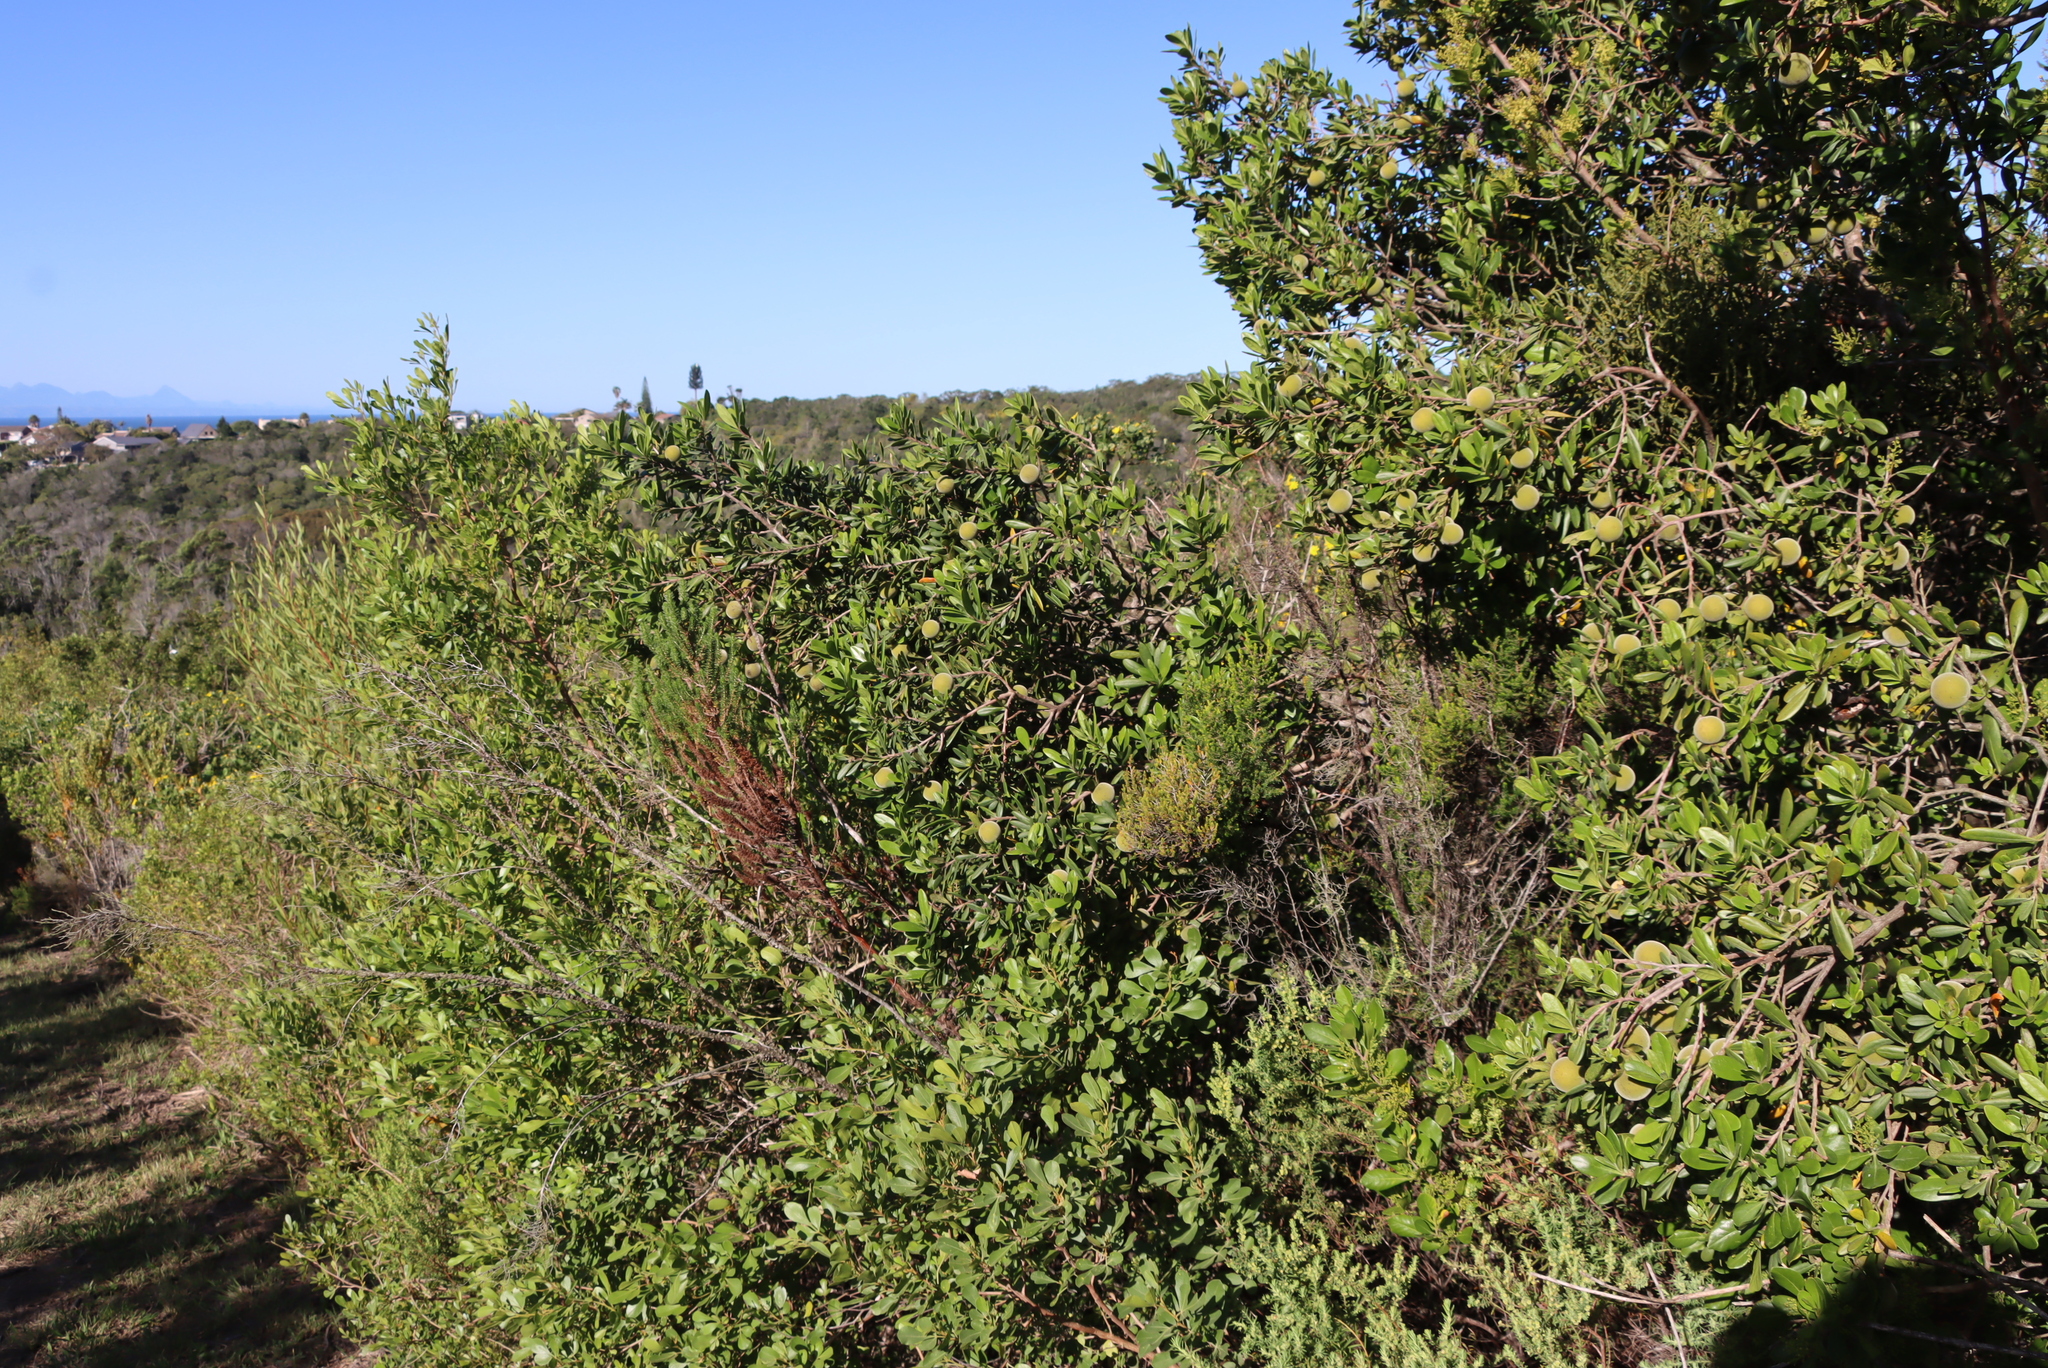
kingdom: Plantae
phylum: Tracheophyta
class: Magnoliopsida
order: Ericales
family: Ebenaceae
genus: Diospyros
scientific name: Diospyros dichrophylla
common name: Common star-apple
